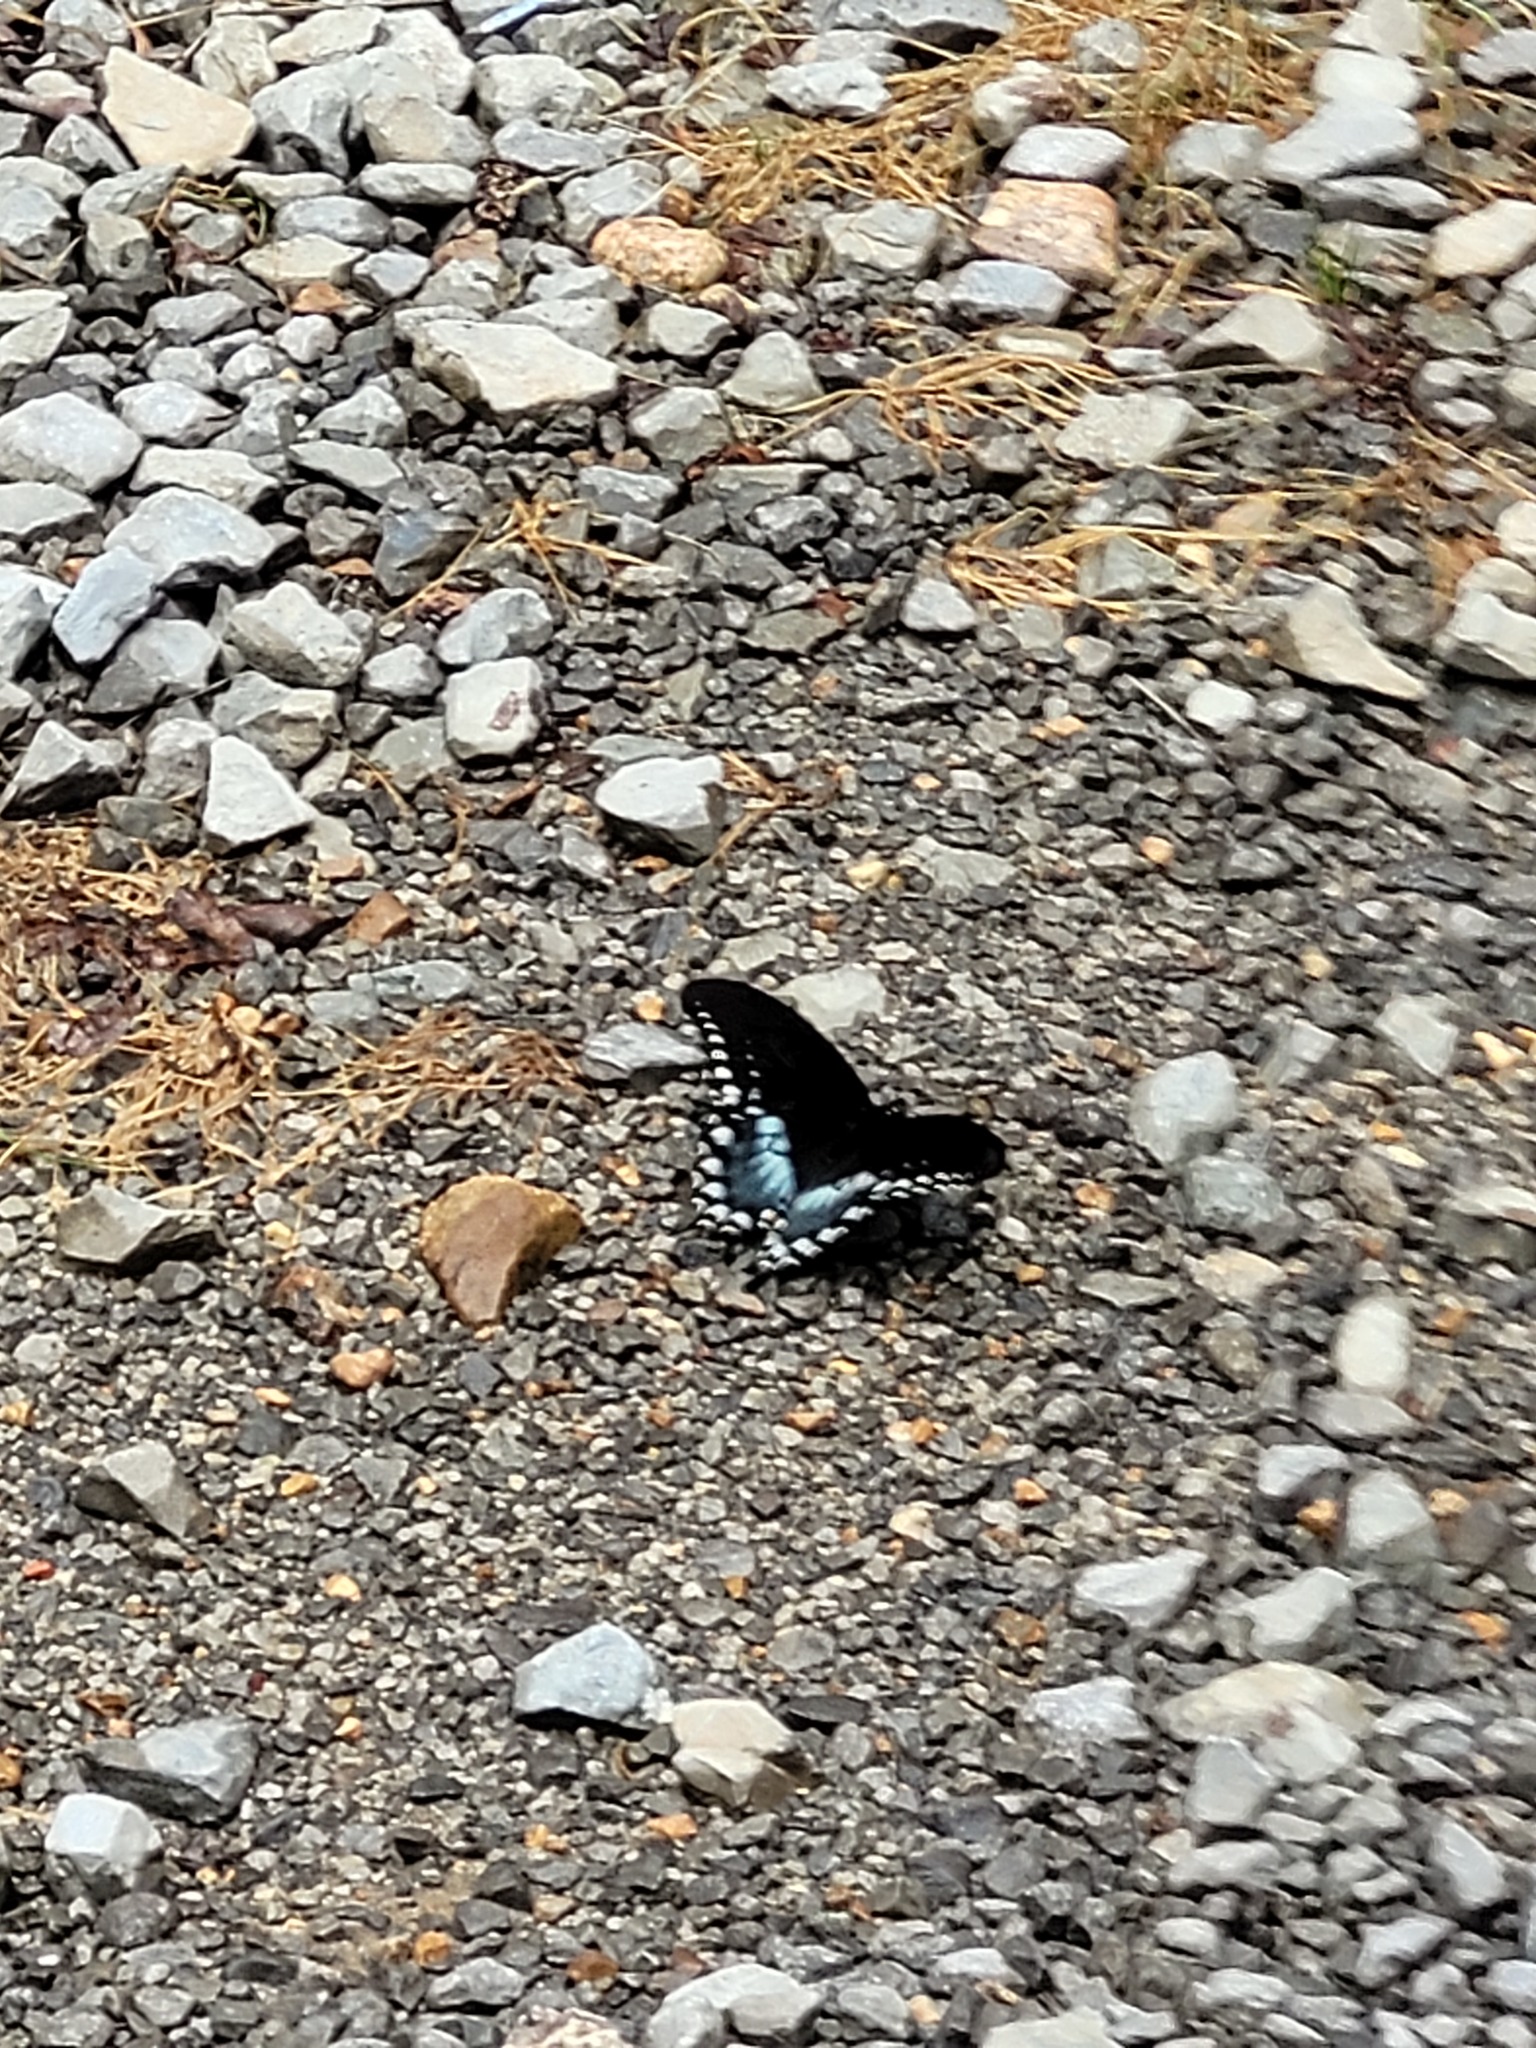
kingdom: Animalia
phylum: Arthropoda
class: Insecta
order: Lepidoptera
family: Papilionidae
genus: Papilio
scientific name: Papilio troilus
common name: Spicebush swallowtail
